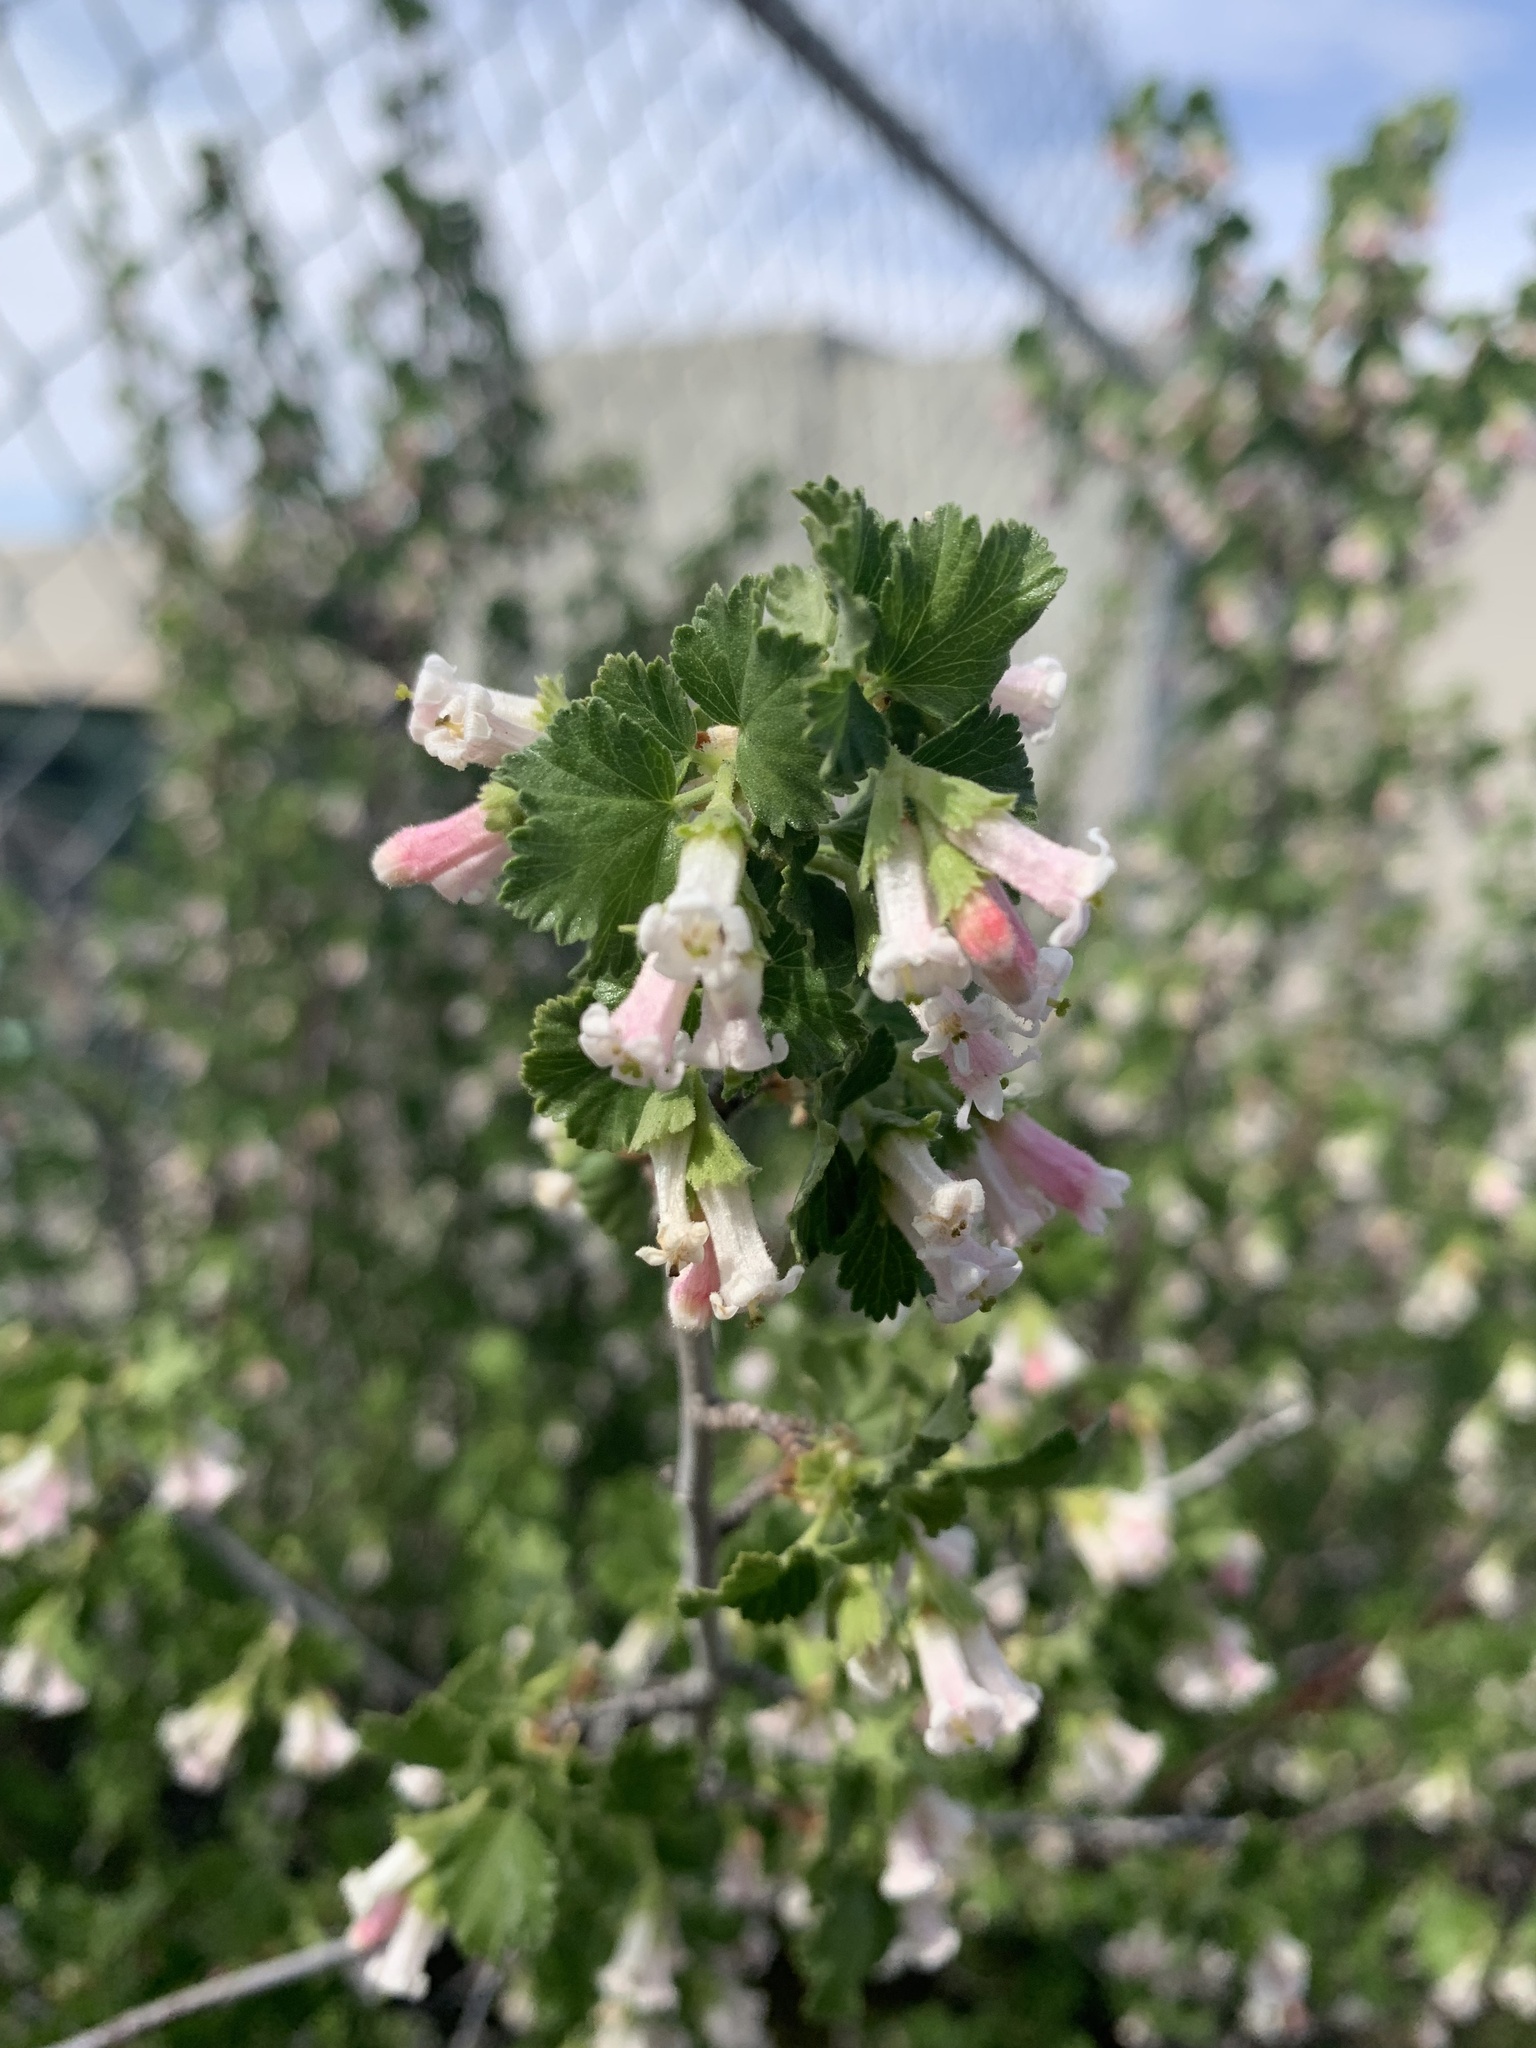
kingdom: Plantae
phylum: Tracheophyta
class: Magnoliopsida
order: Saxifragales
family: Grossulariaceae
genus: Ribes
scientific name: Ribes cereum
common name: Wax currant
